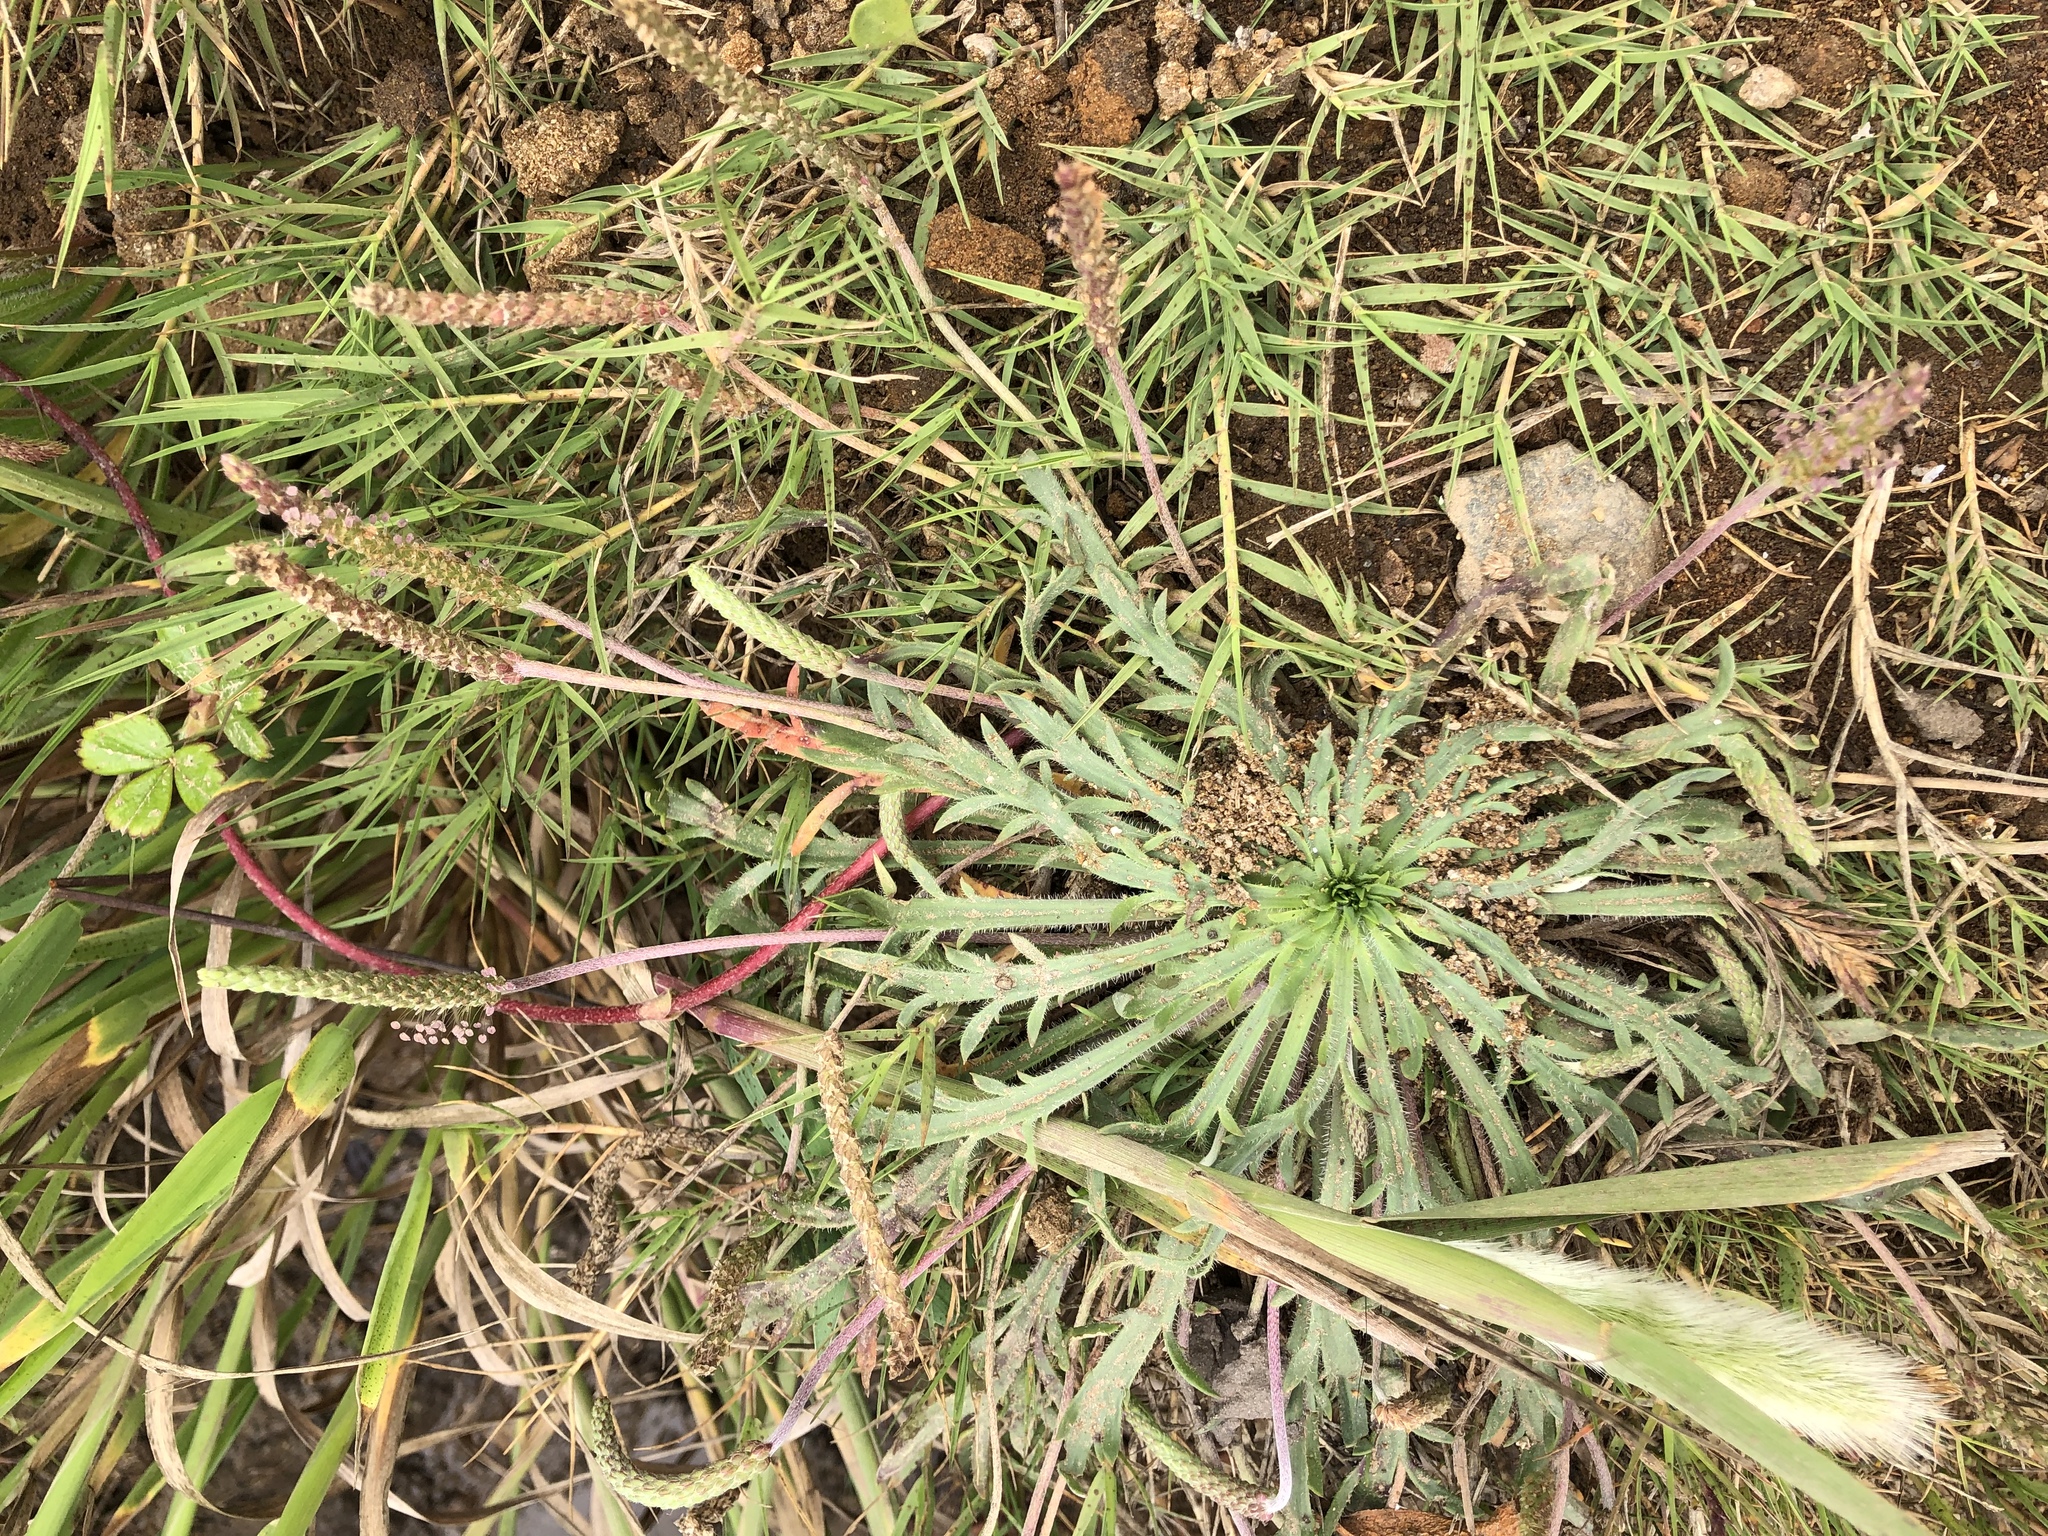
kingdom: Plantae
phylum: Tracheophyta
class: Magnoliopsida
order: Lamiales
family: Plantaginaceae
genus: Plantago
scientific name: Plantago coronopus
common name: Buck's-horn plantain
